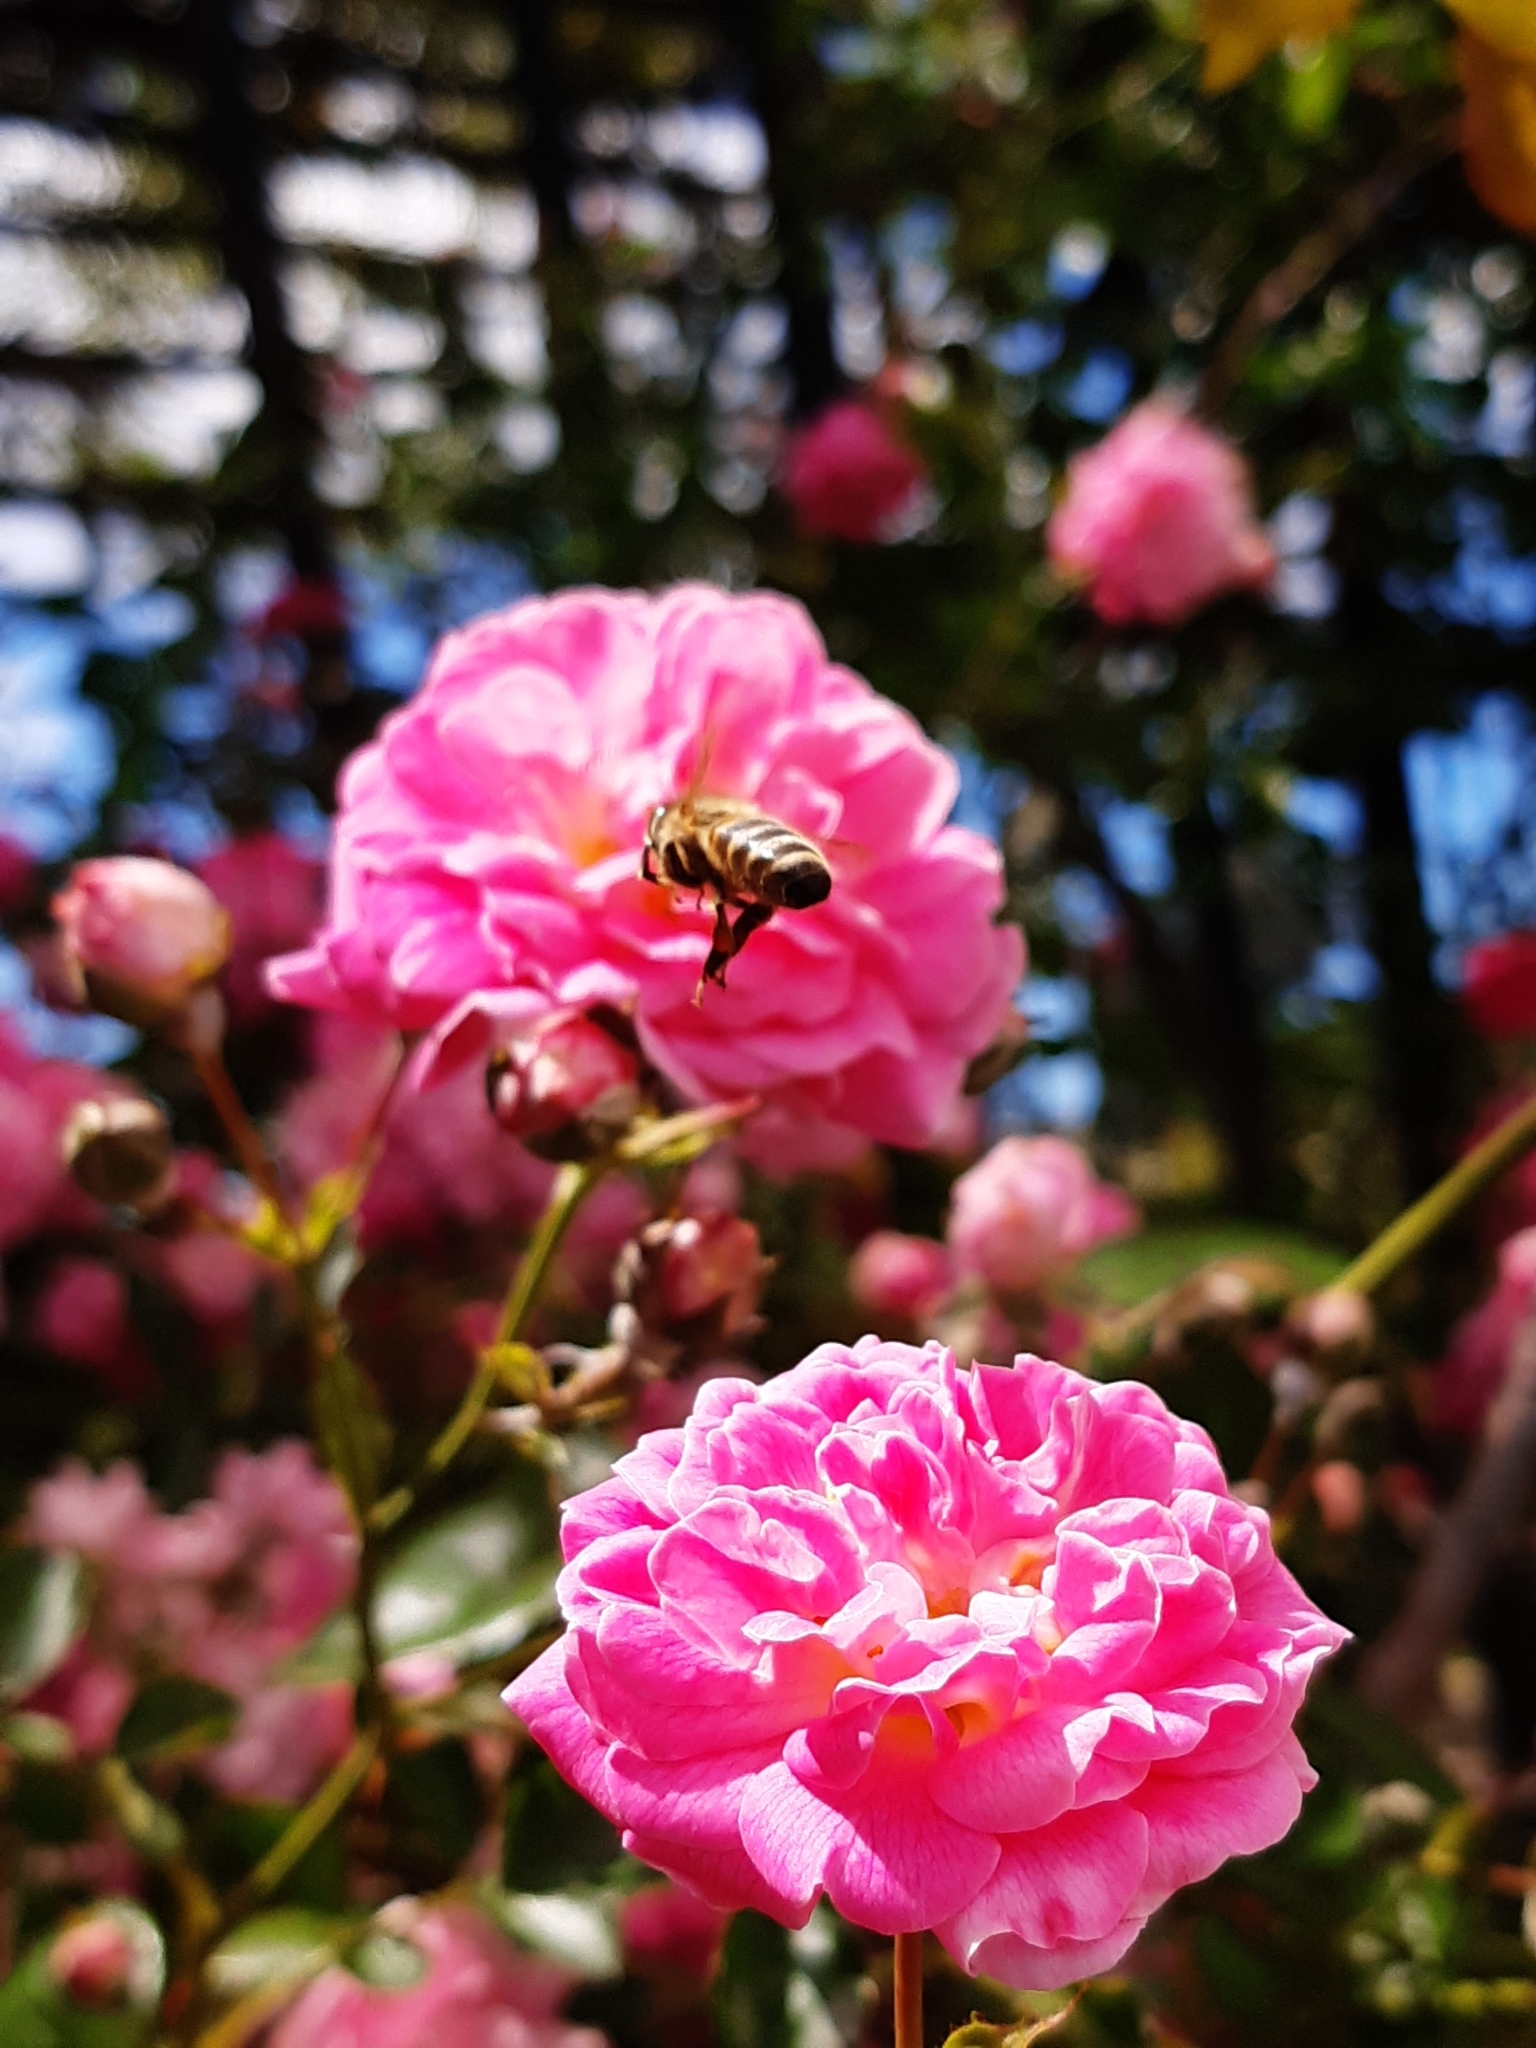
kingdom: Animalia
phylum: Arthropoda
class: Insecta
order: Hymenoptera
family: Apidae
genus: Apis
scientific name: Apis mellifera
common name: Honey bee
